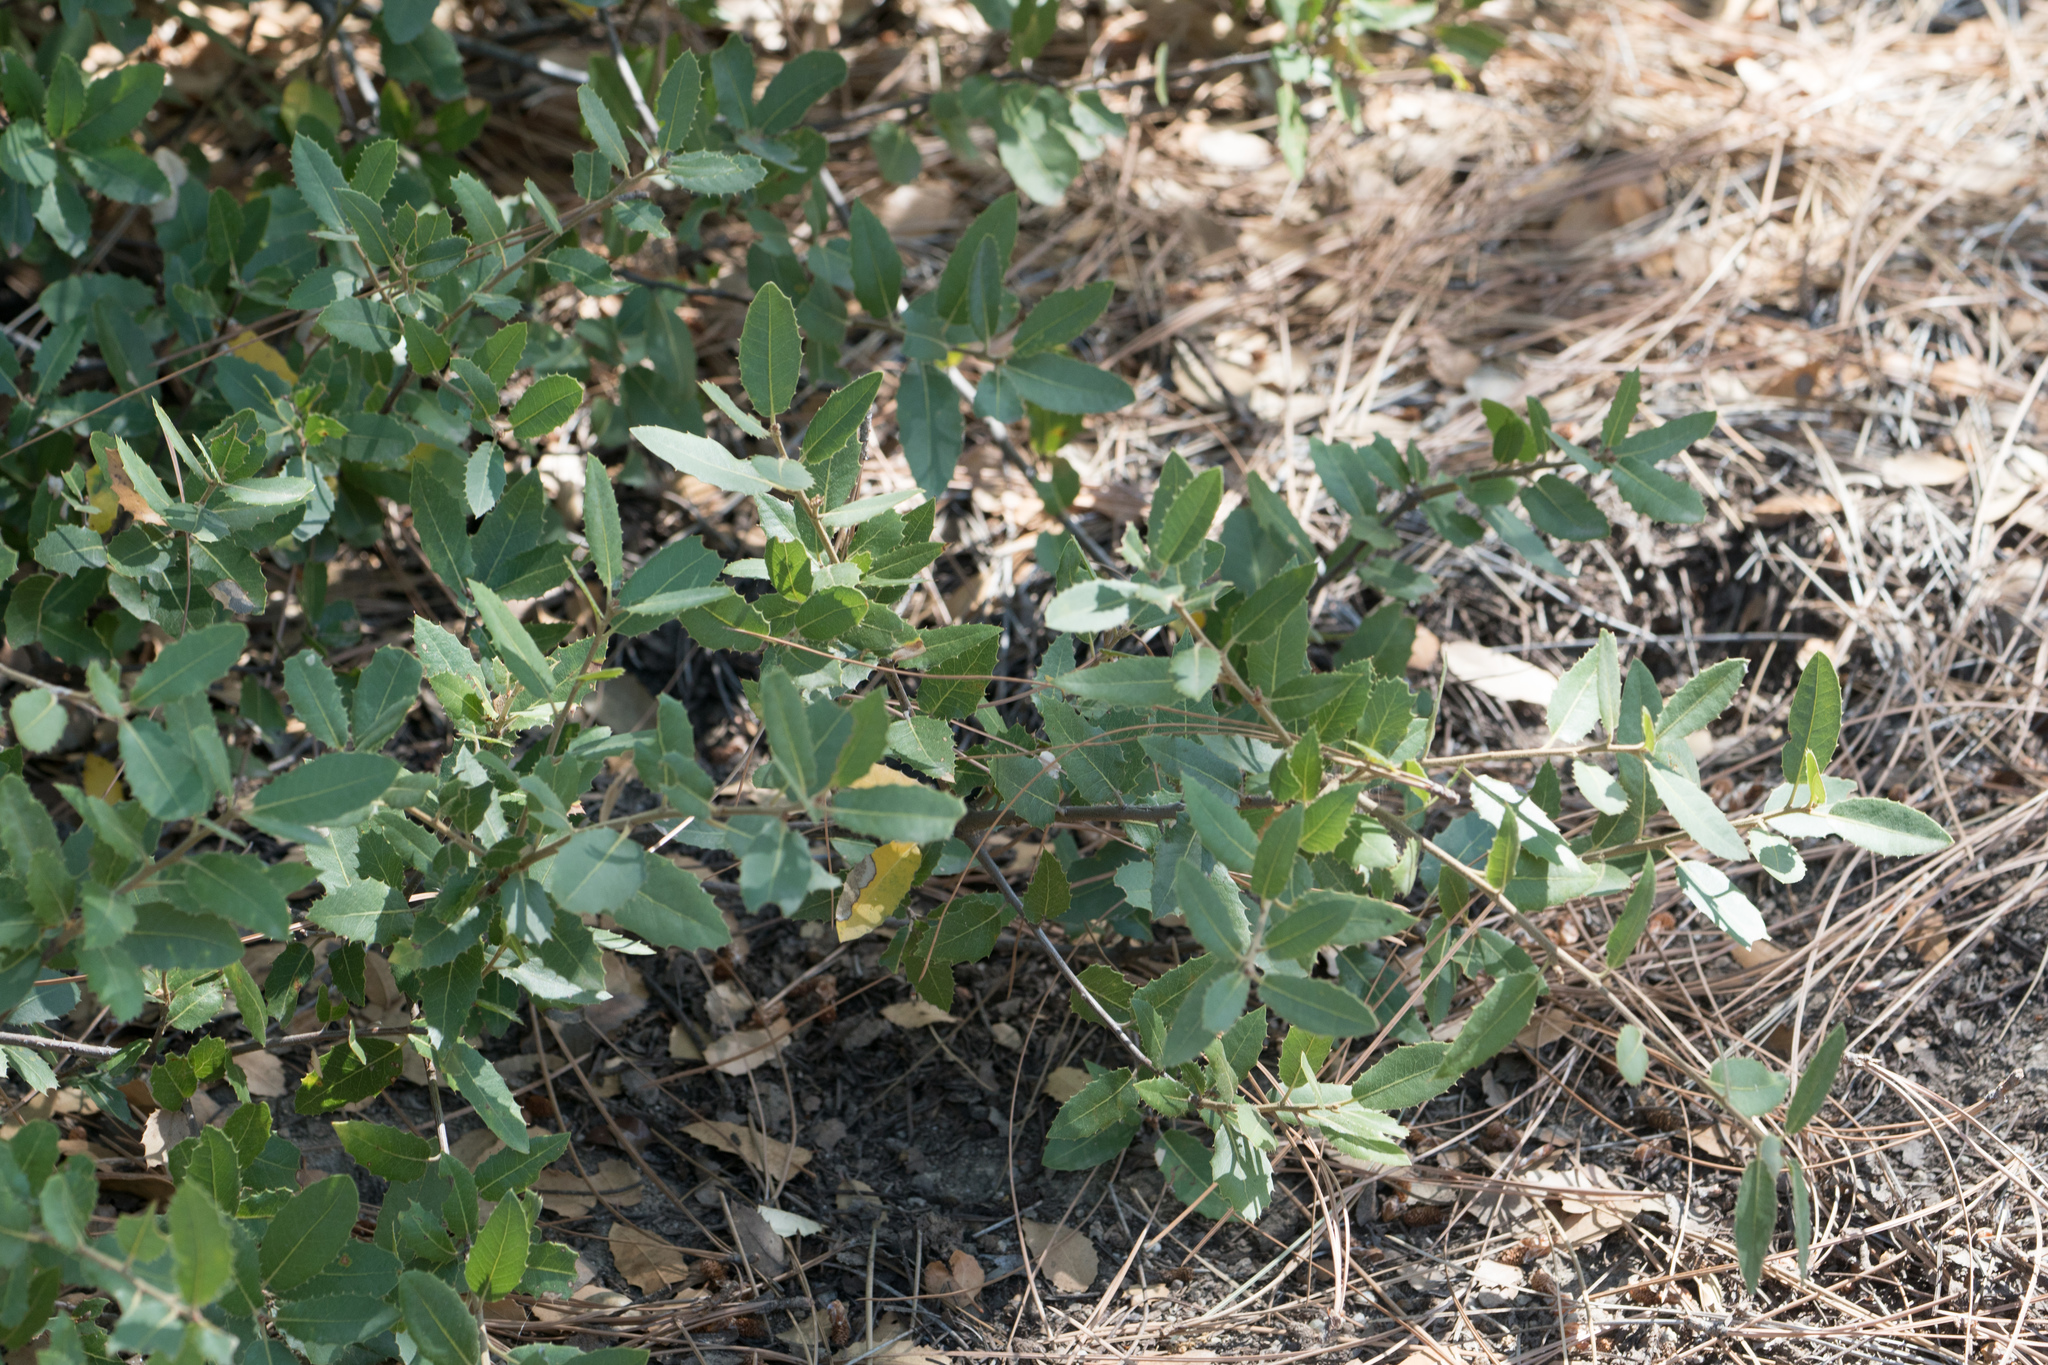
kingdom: Plantae
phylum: Tracheophyta
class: Magnoliopsida
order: Fagales
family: Fagaceae
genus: Quercus
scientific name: Quercus wislizeni
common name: Interior live oak
